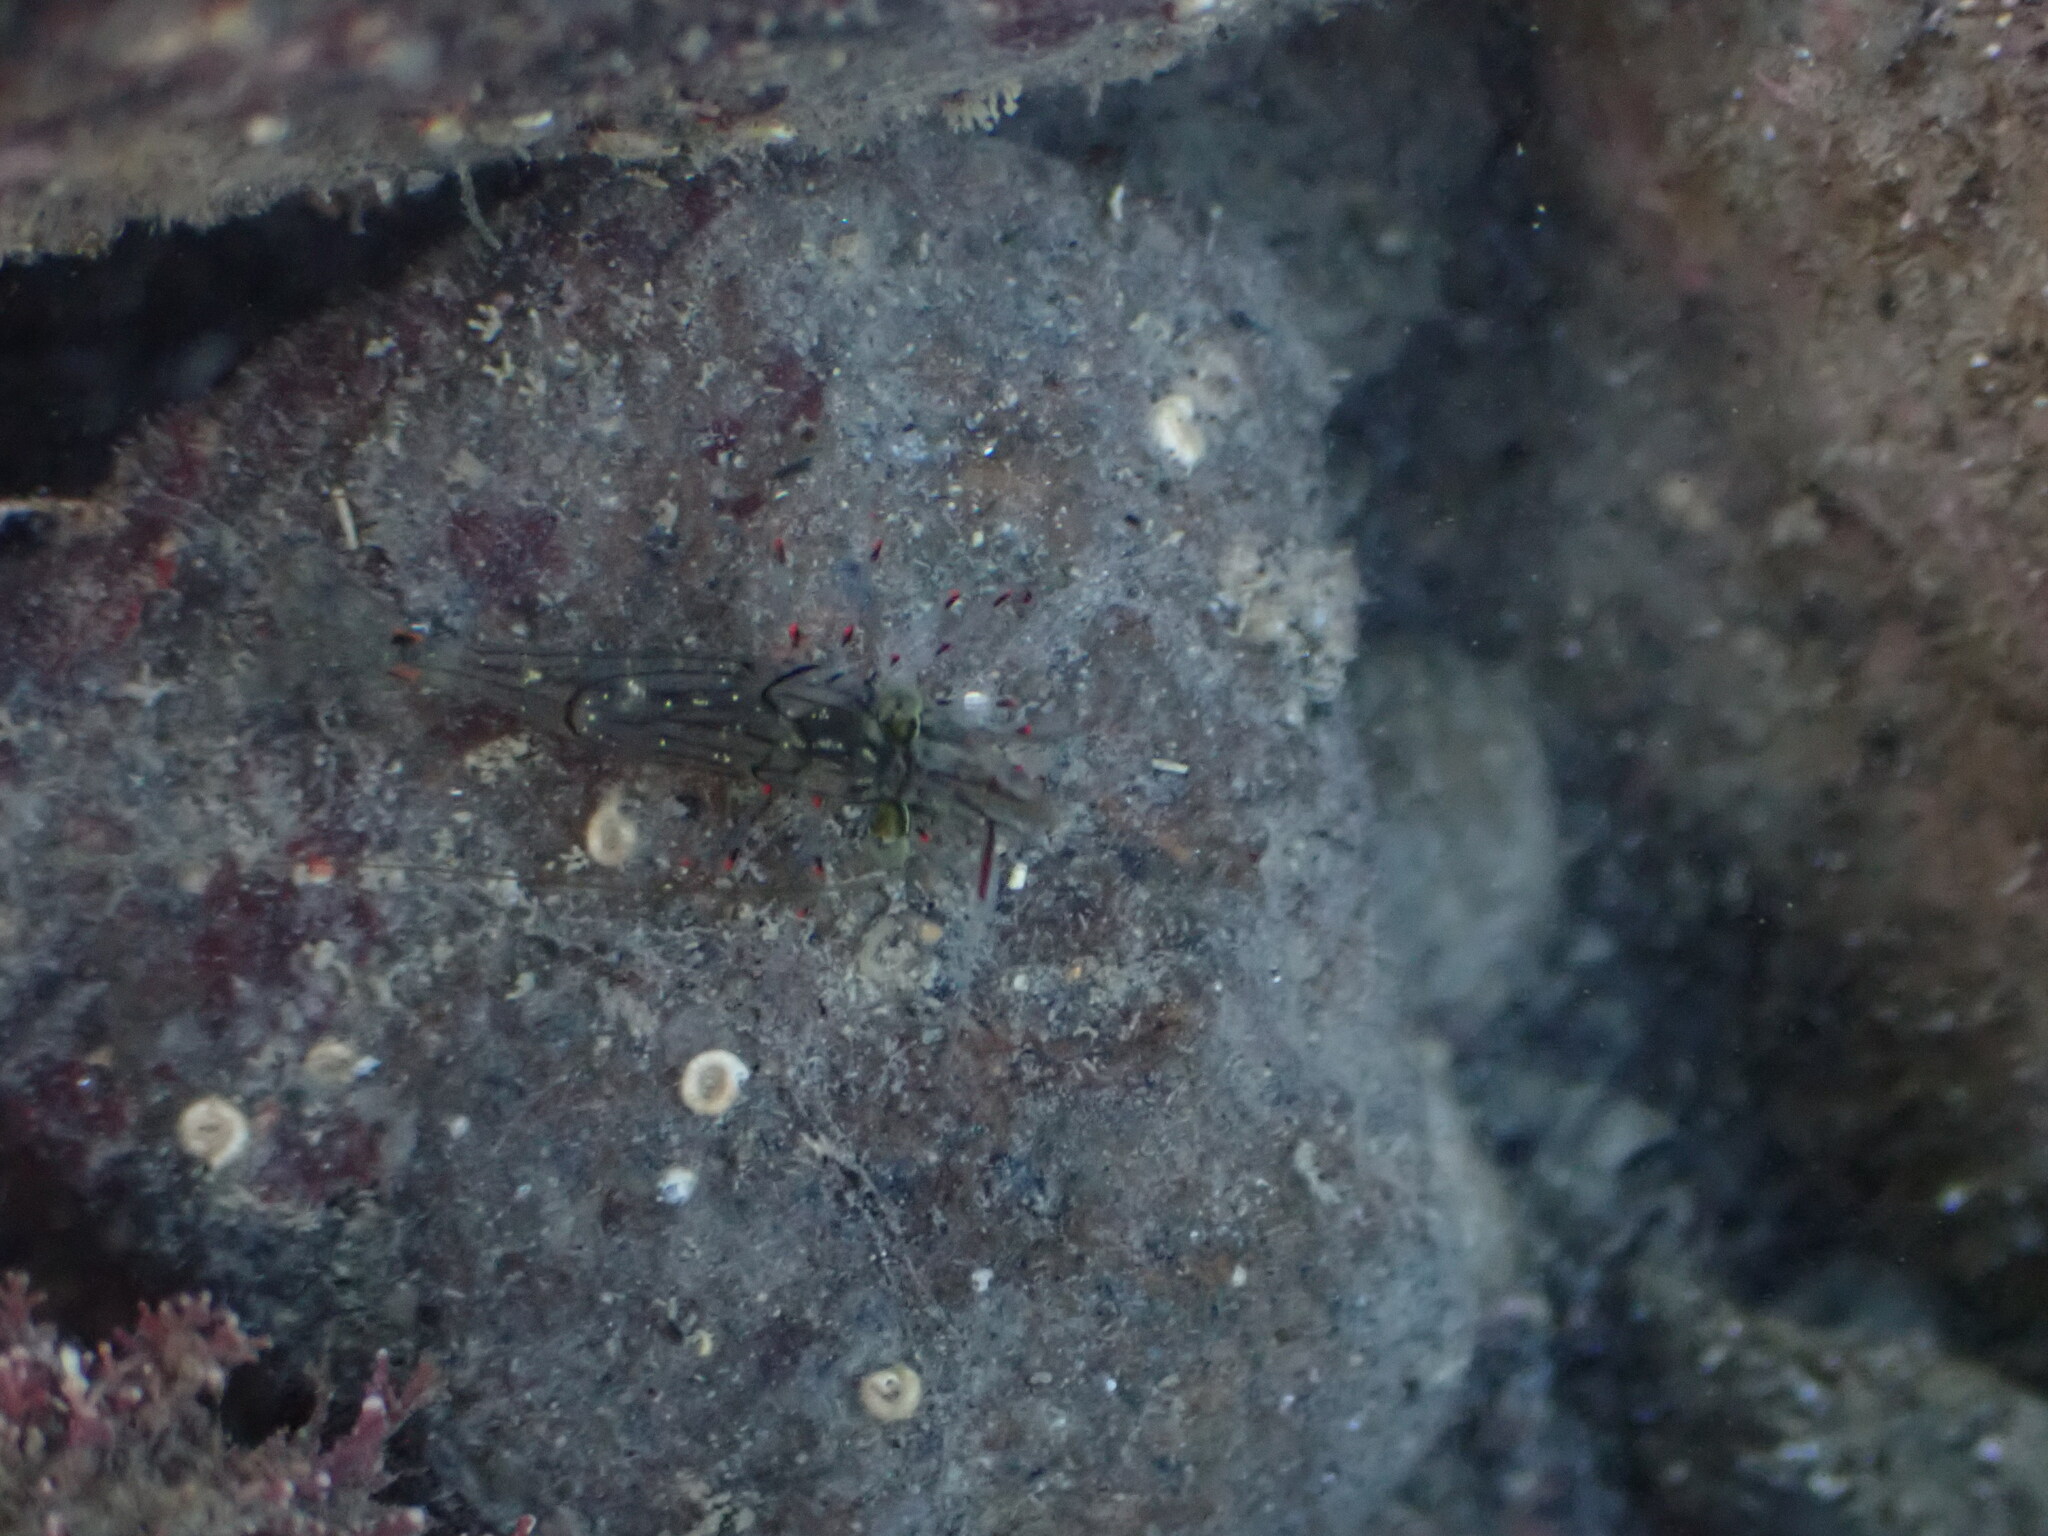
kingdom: Animalia
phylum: Arthropoda
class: Malacostraca
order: Decapoda
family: Palaemonidae
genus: Palaemon
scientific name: Palaemon affinis
